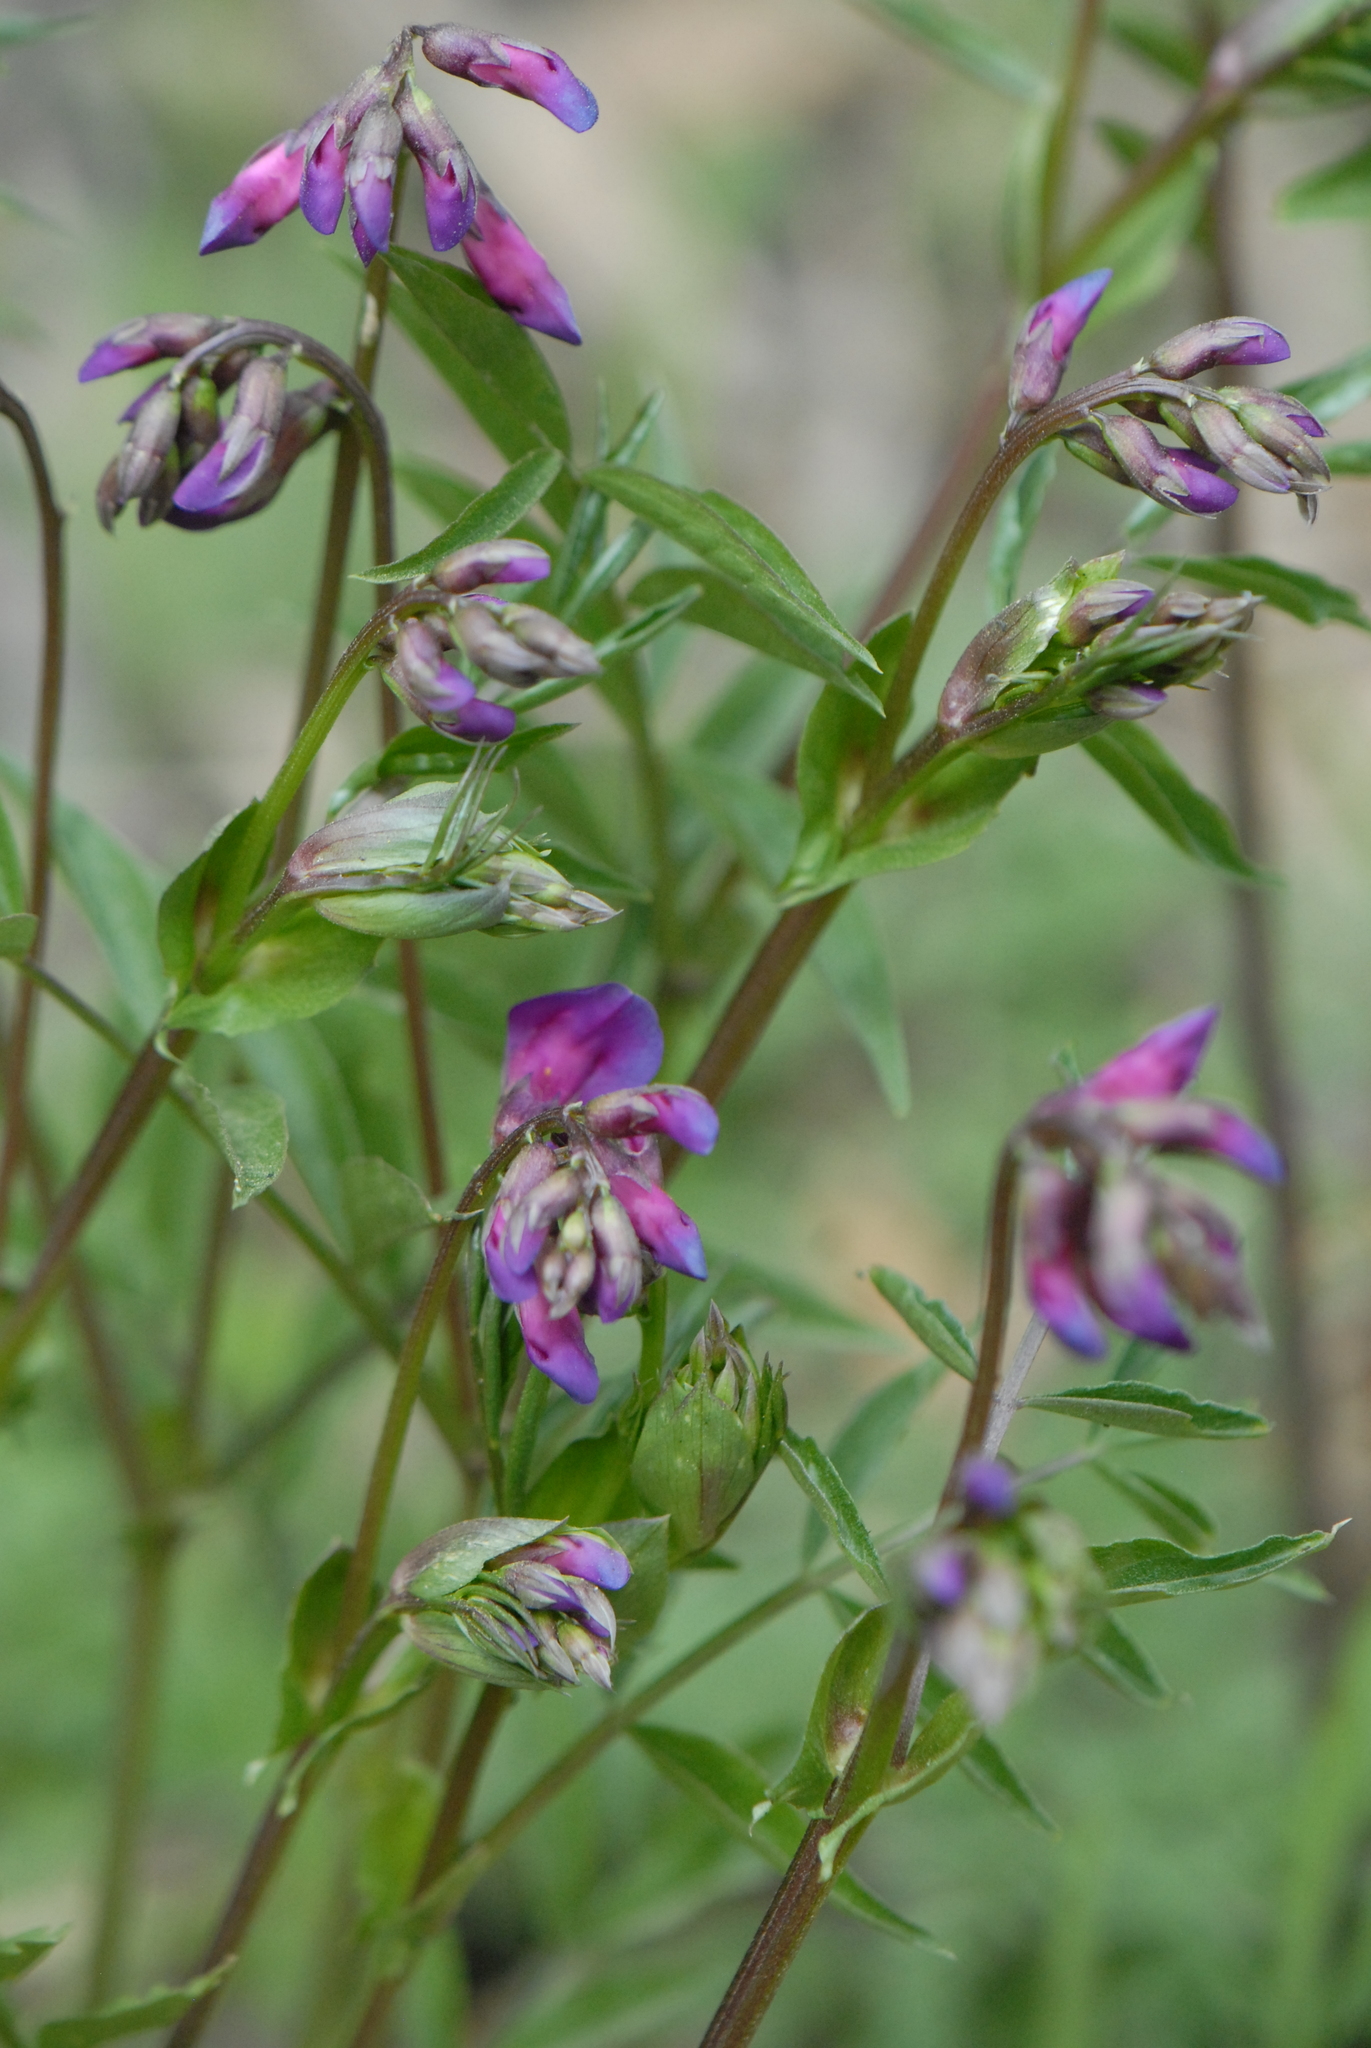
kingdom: Plantae
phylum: Tracheophyta
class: Magnoliopsida
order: Fabales
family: Fabaceae
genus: Lathyrus
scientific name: Lathyrus vernus
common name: Spring pea
